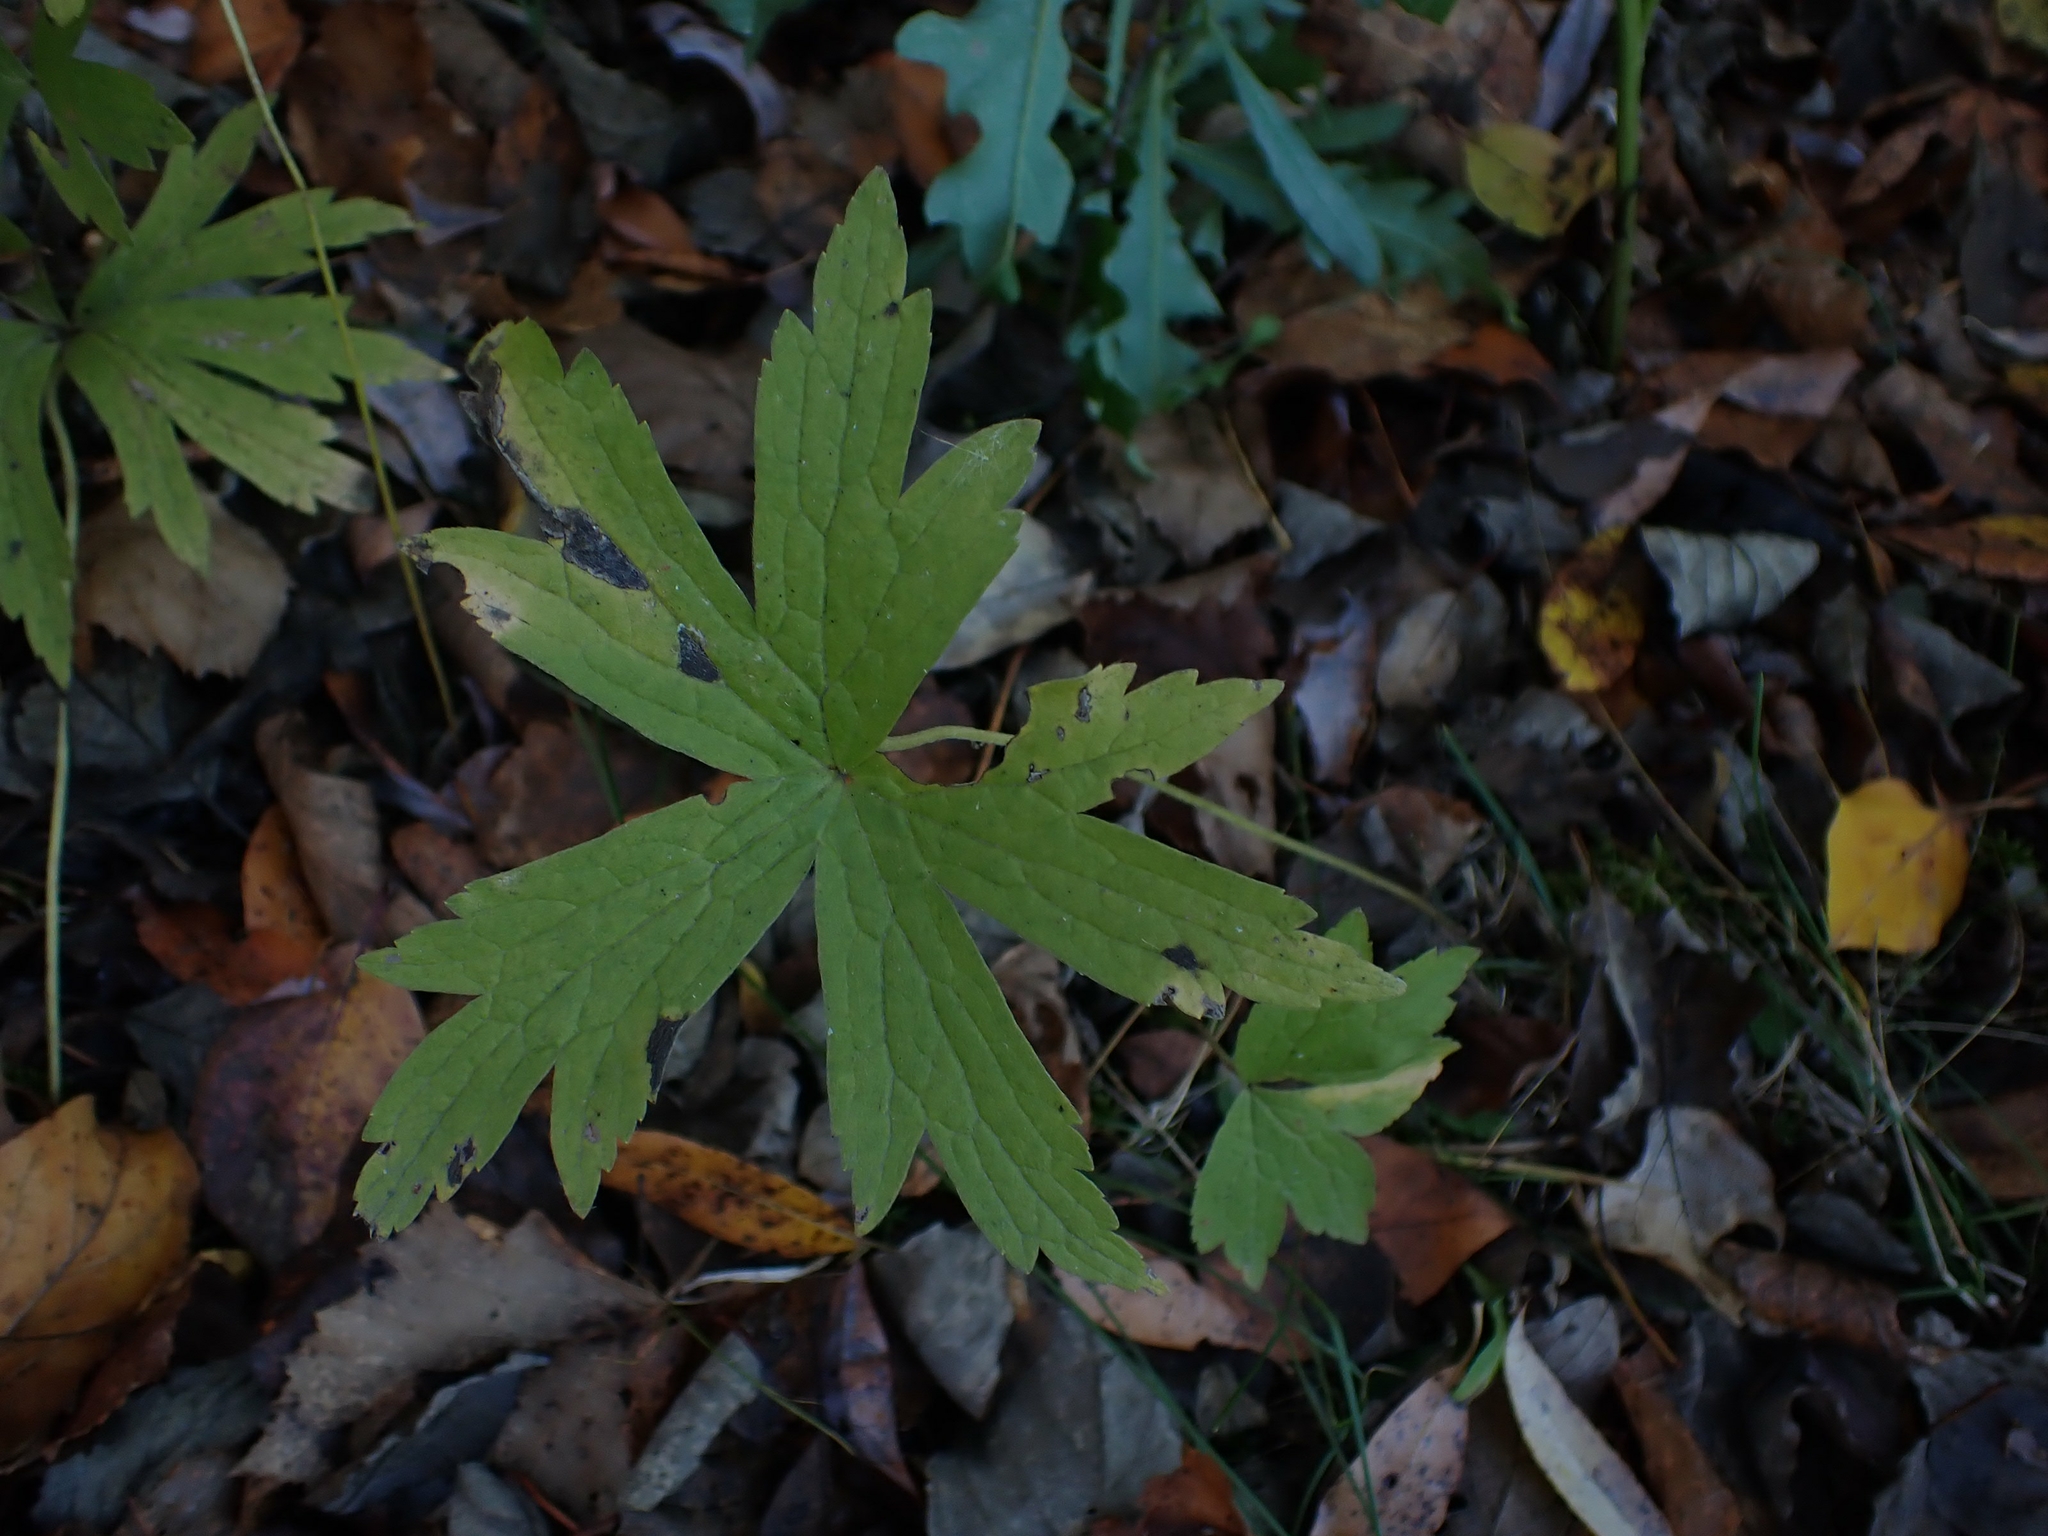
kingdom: Plantae
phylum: Tracheophyta
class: Magnoliopsida
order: Ranunculales
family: Ranunculaceae
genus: Anemonastrum
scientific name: Anemonastrum canadense
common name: Canada anemone
